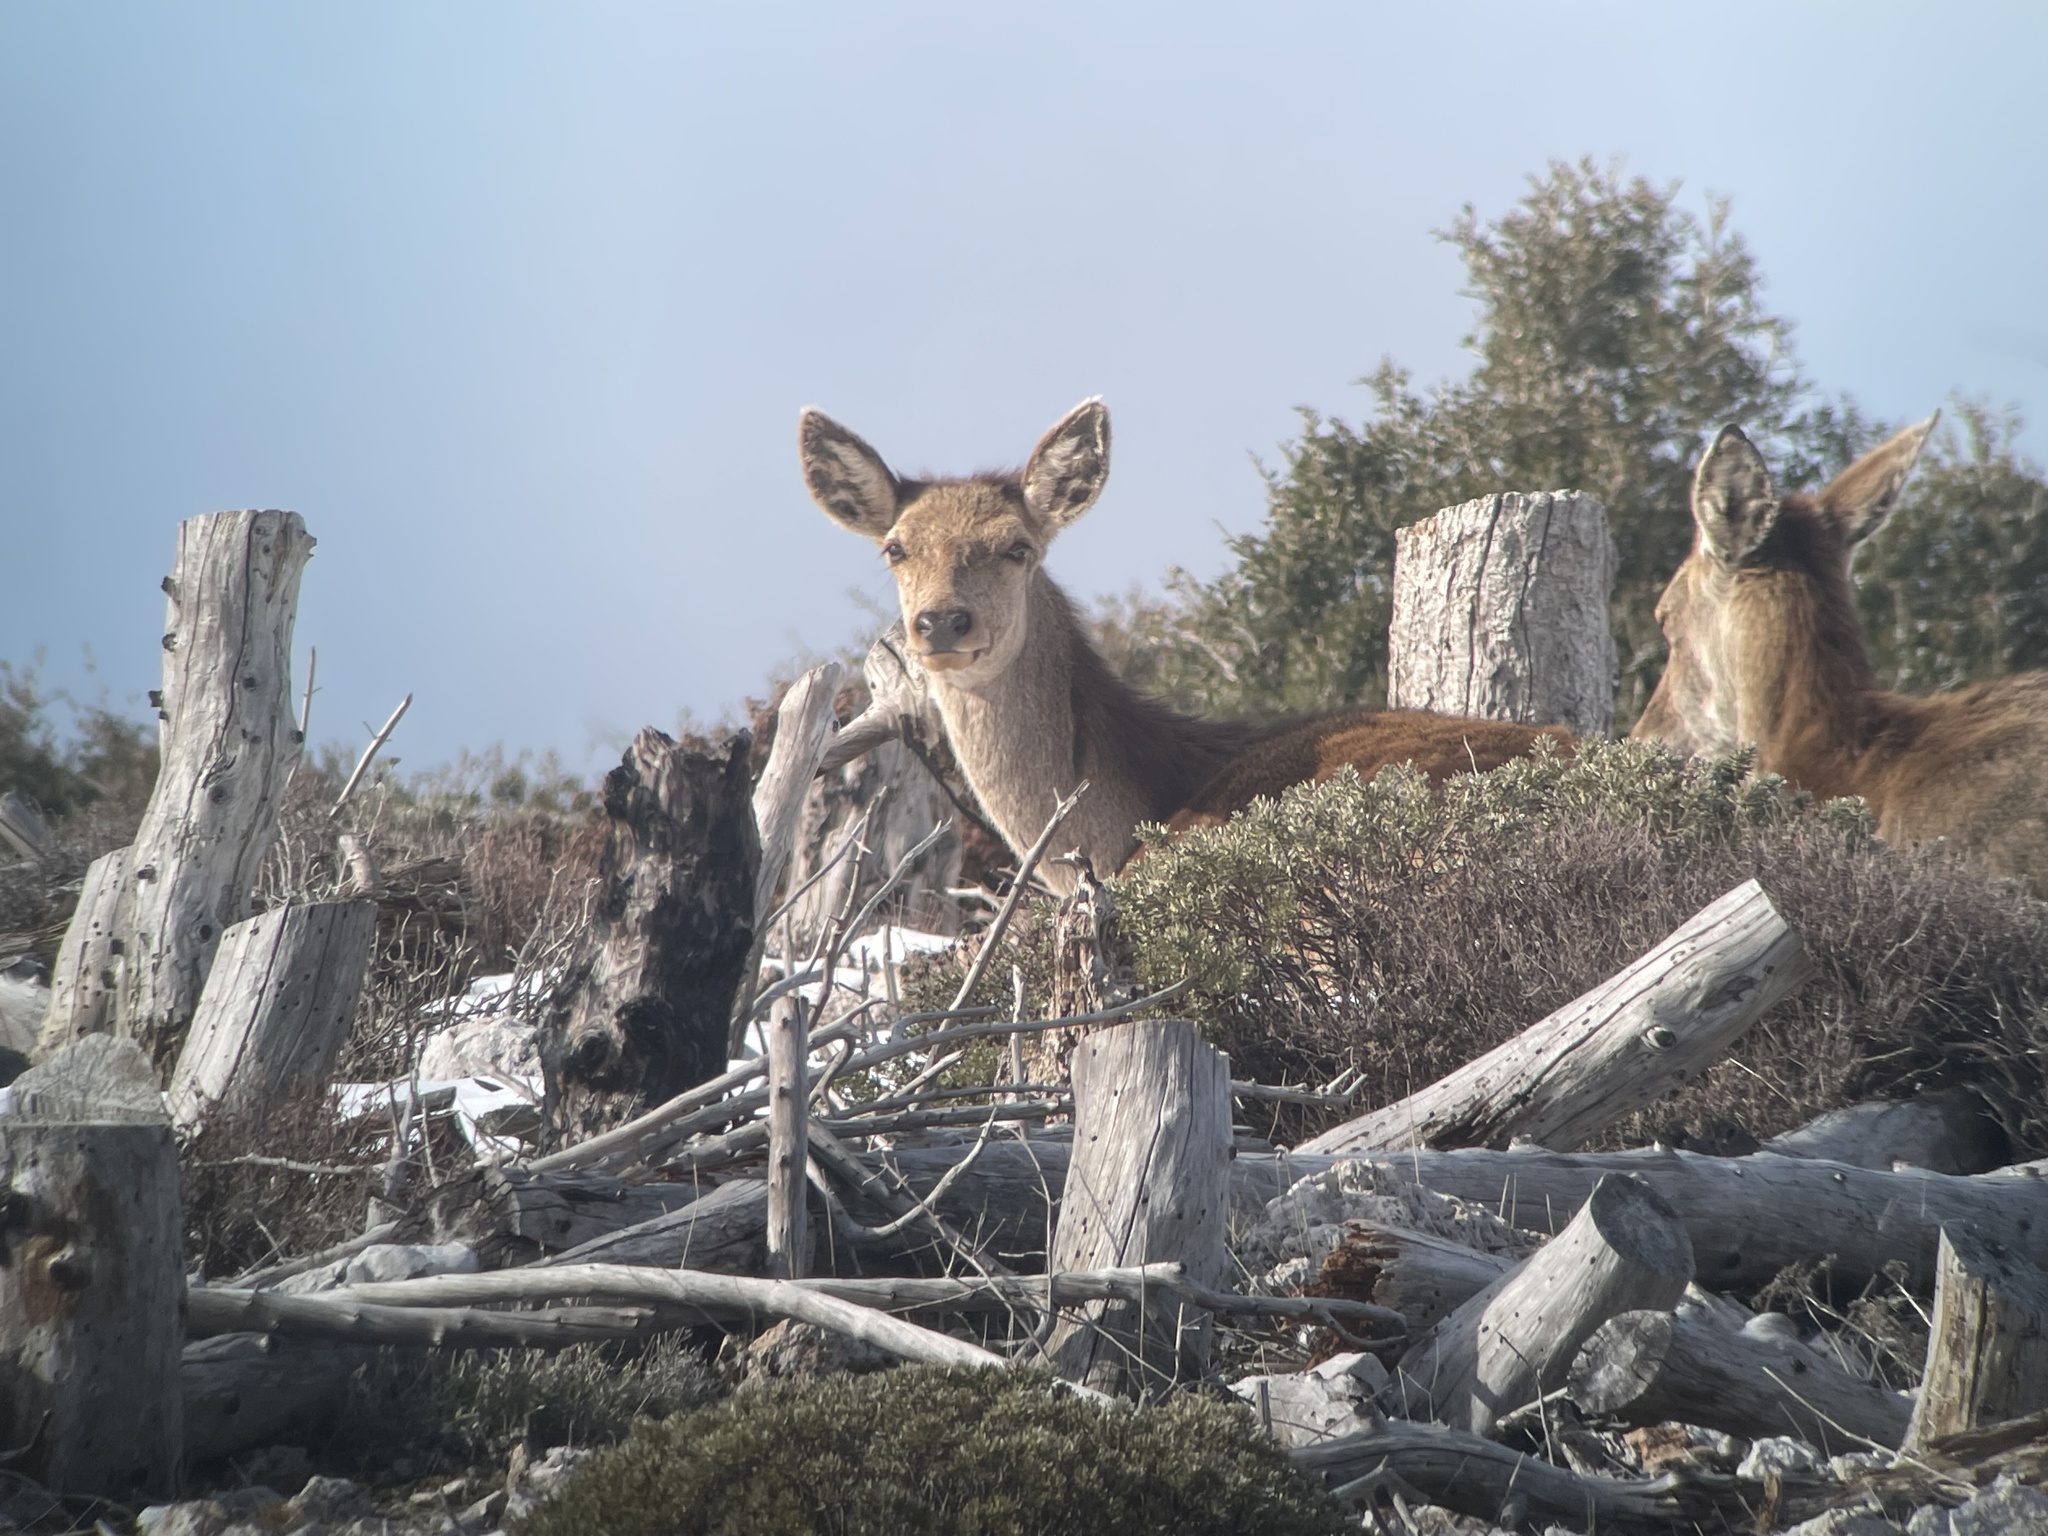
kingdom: Animalia
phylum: Chordata
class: Mammalia
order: Artiodactyla
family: Cervidae
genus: Cervus
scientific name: Cervus elaphus
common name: Red deer
